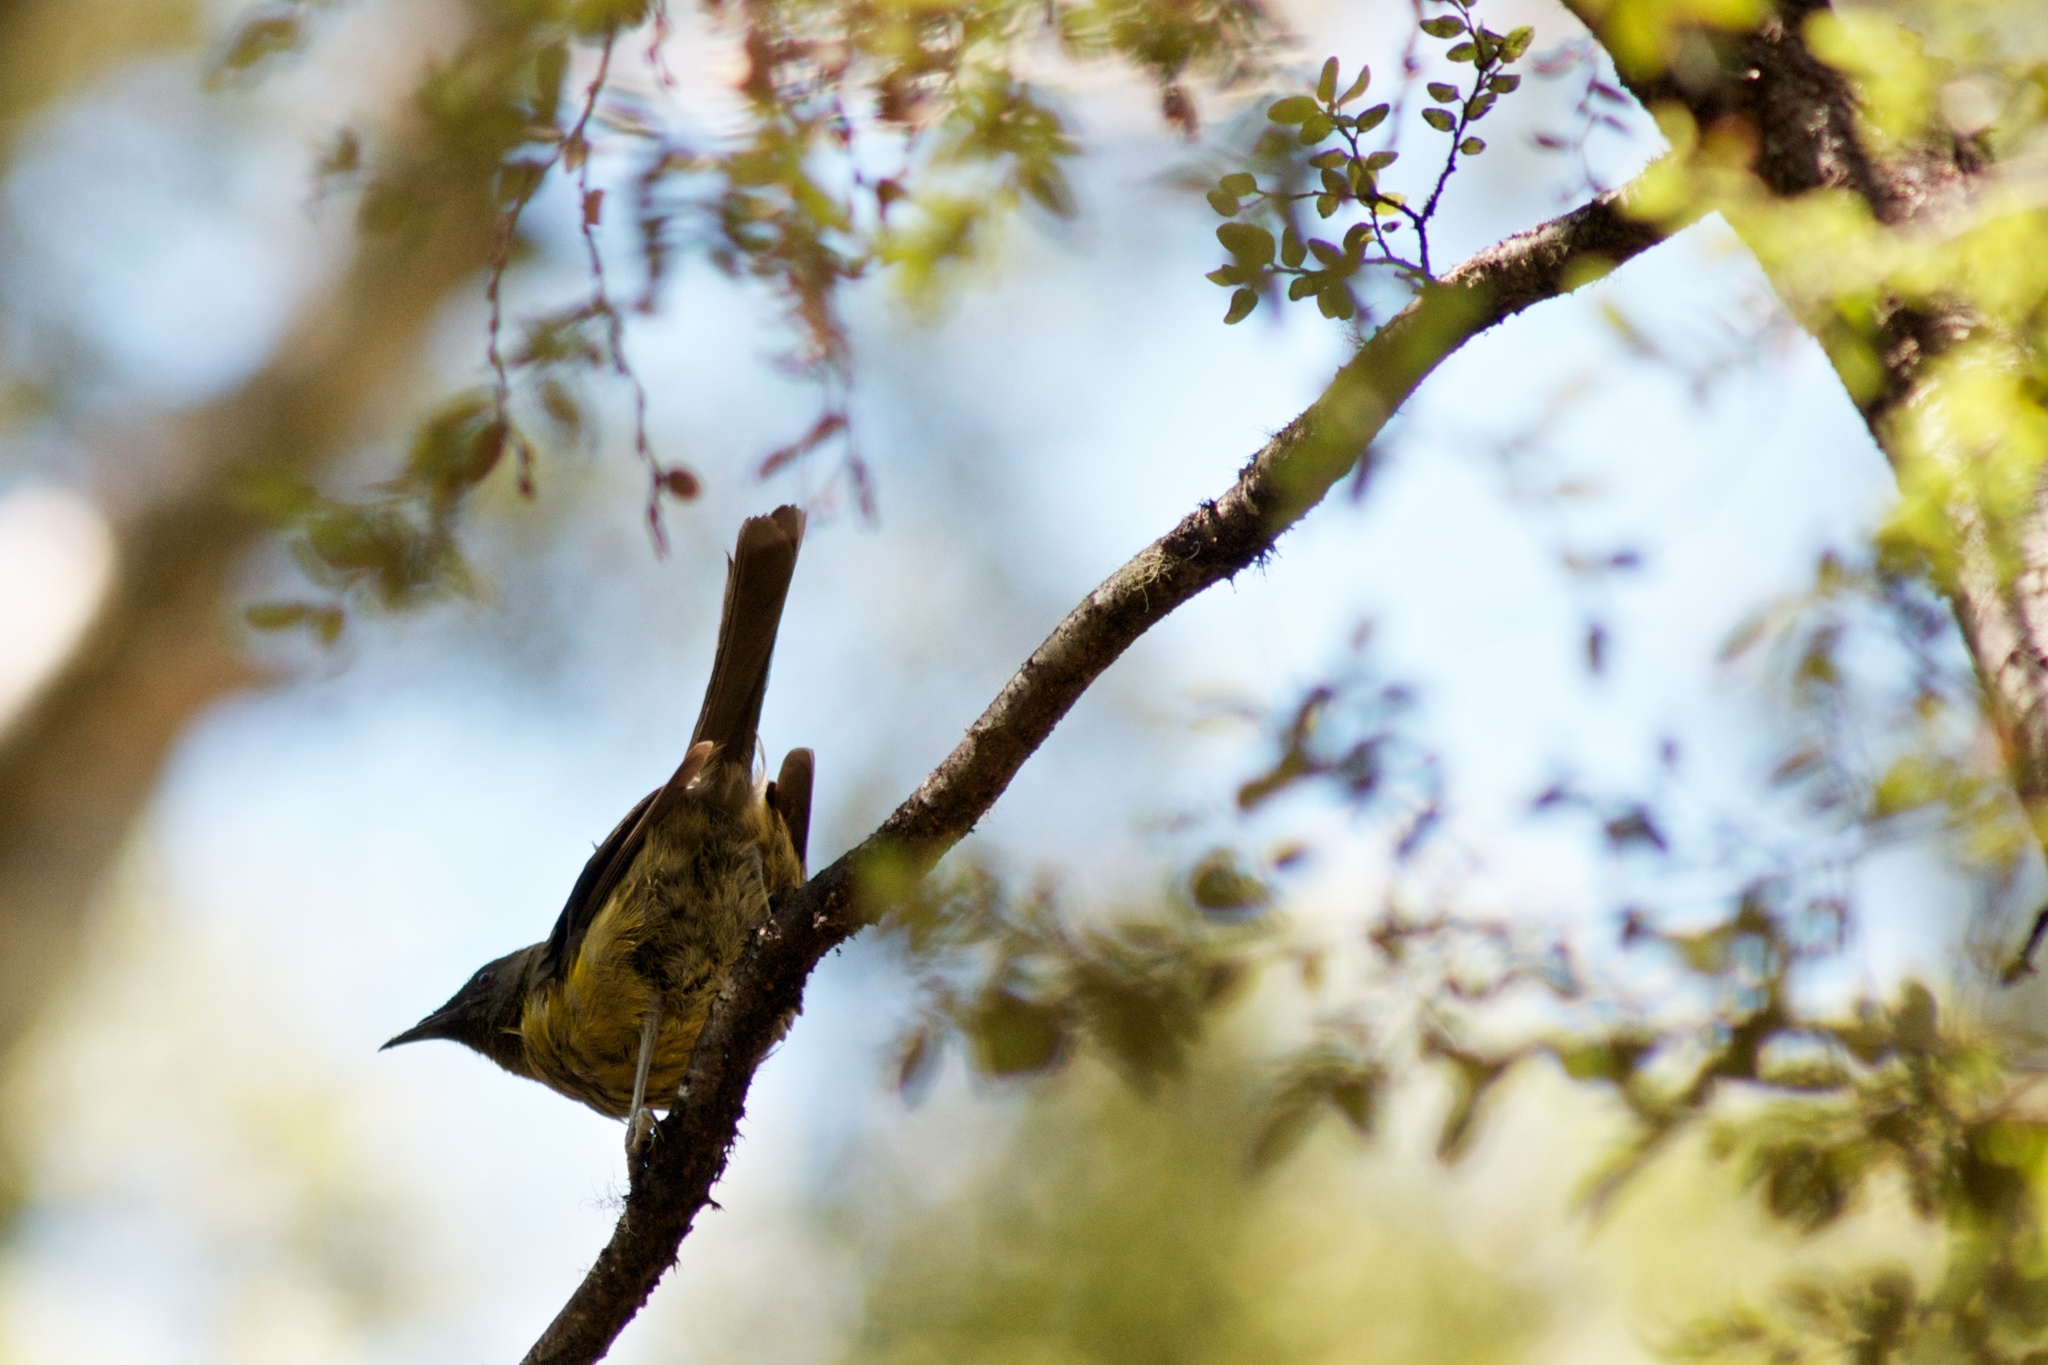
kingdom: Animalia
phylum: Chordata
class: Aves
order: Passeriformes
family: Meliphagidae
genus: Anthornis
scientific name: Anthornis melanura
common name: New zealand bellbird
